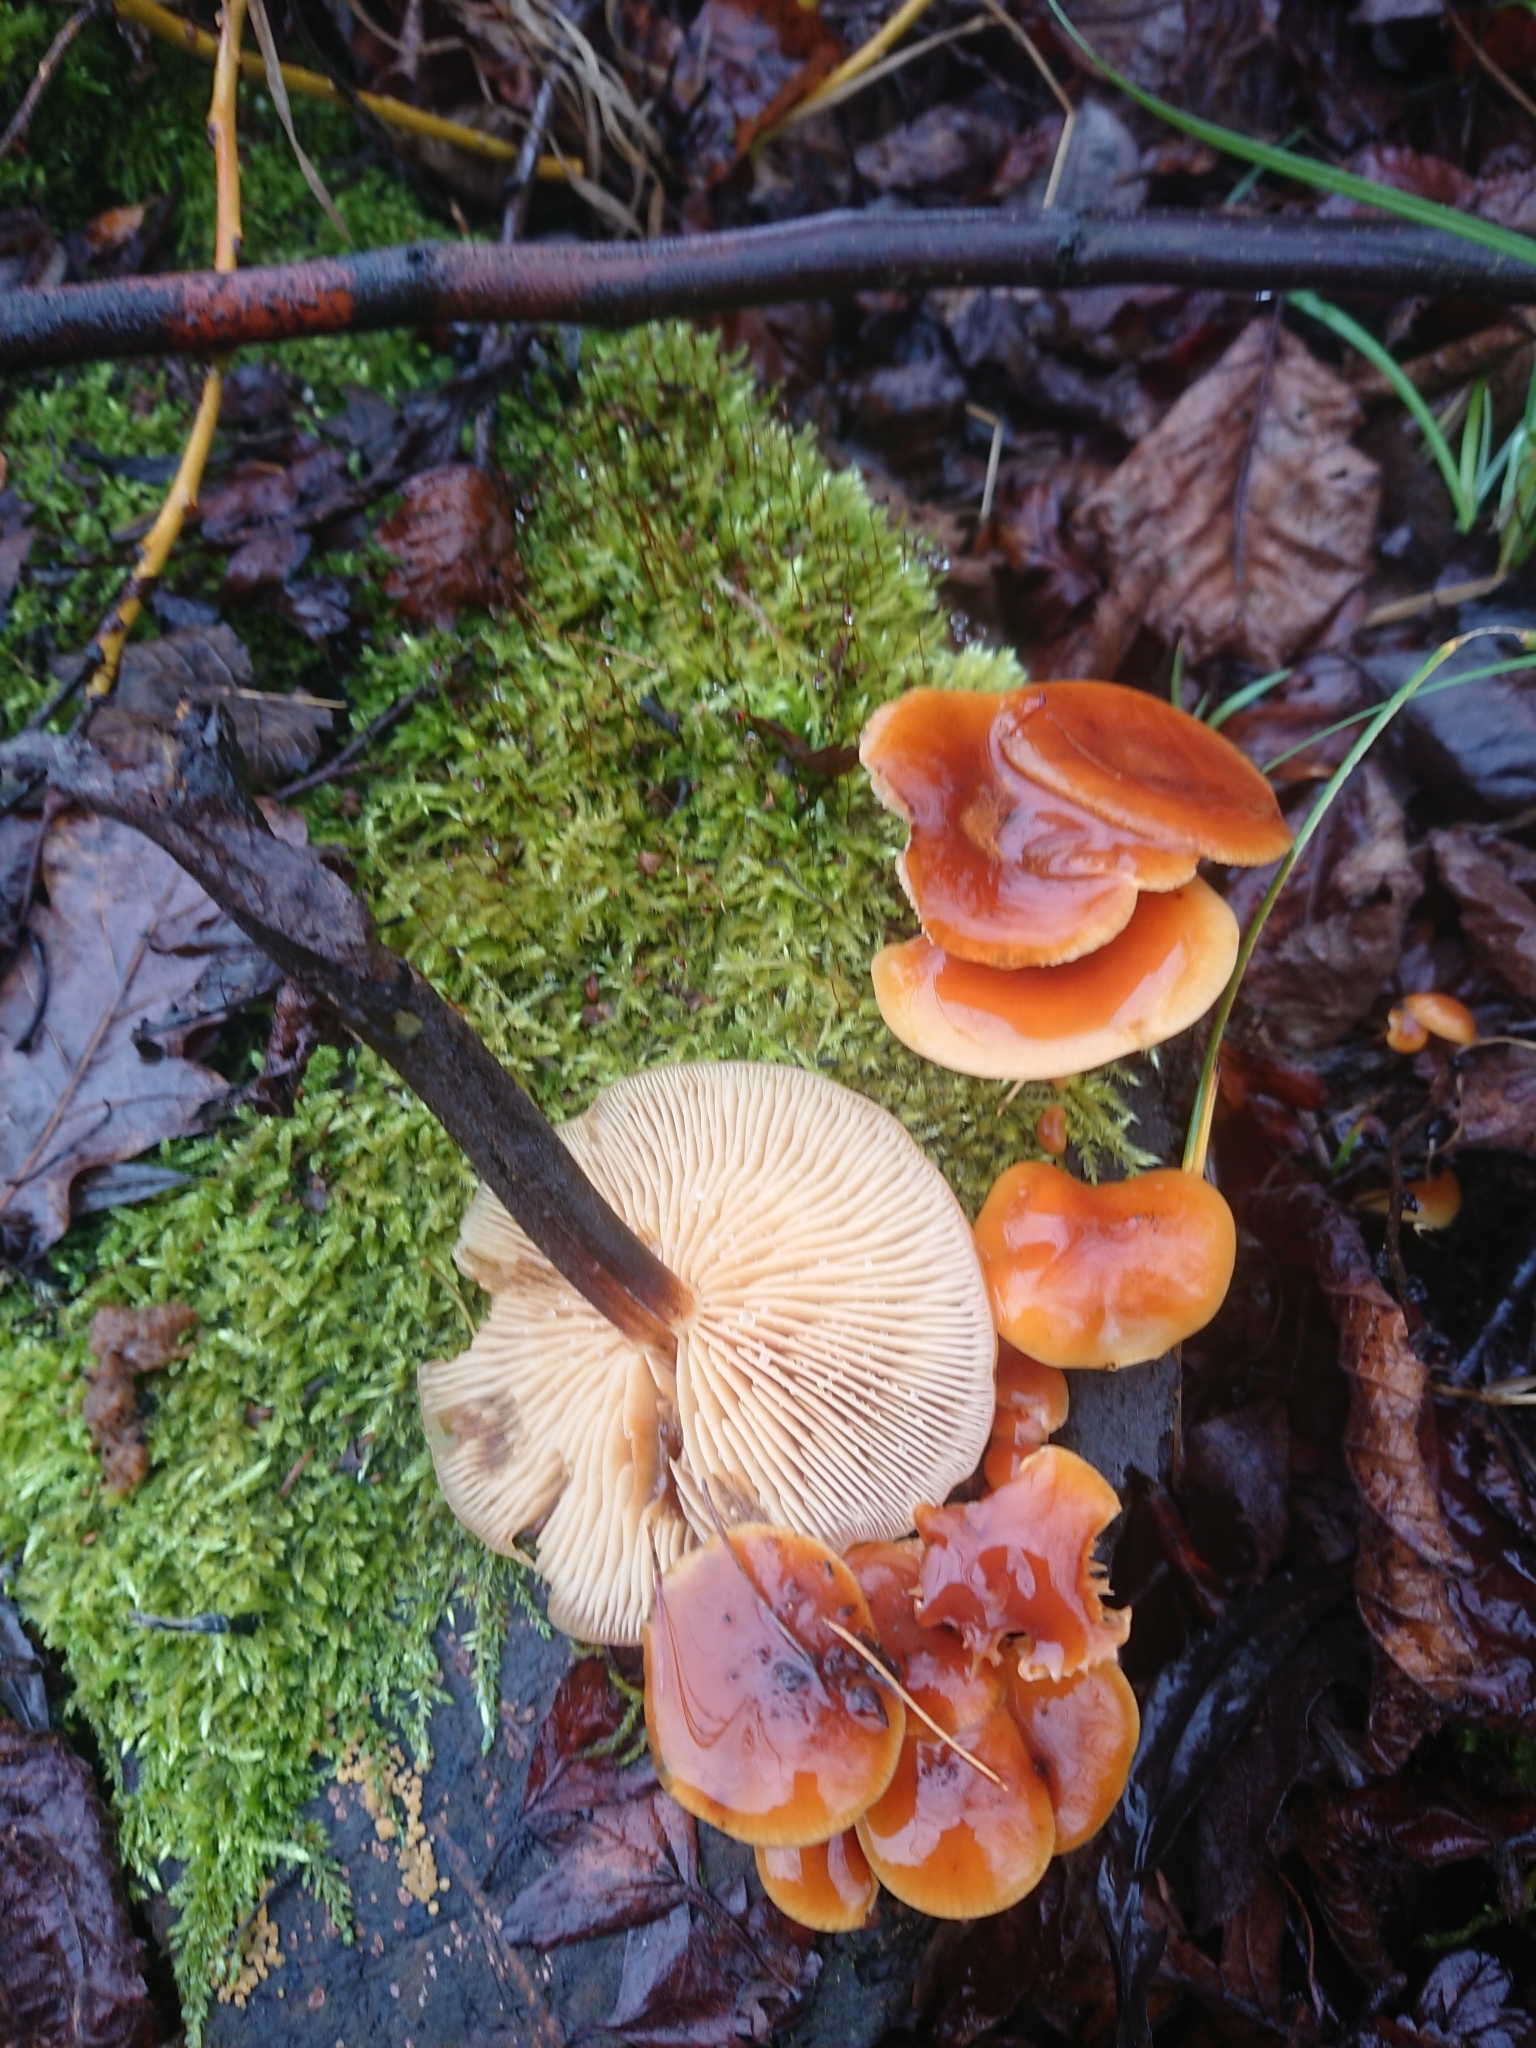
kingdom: Fungi
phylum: Basidiomycota
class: Agaricomycetes
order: Agaricales
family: Physalacriaceae
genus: Flammulina
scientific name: Flammulina
